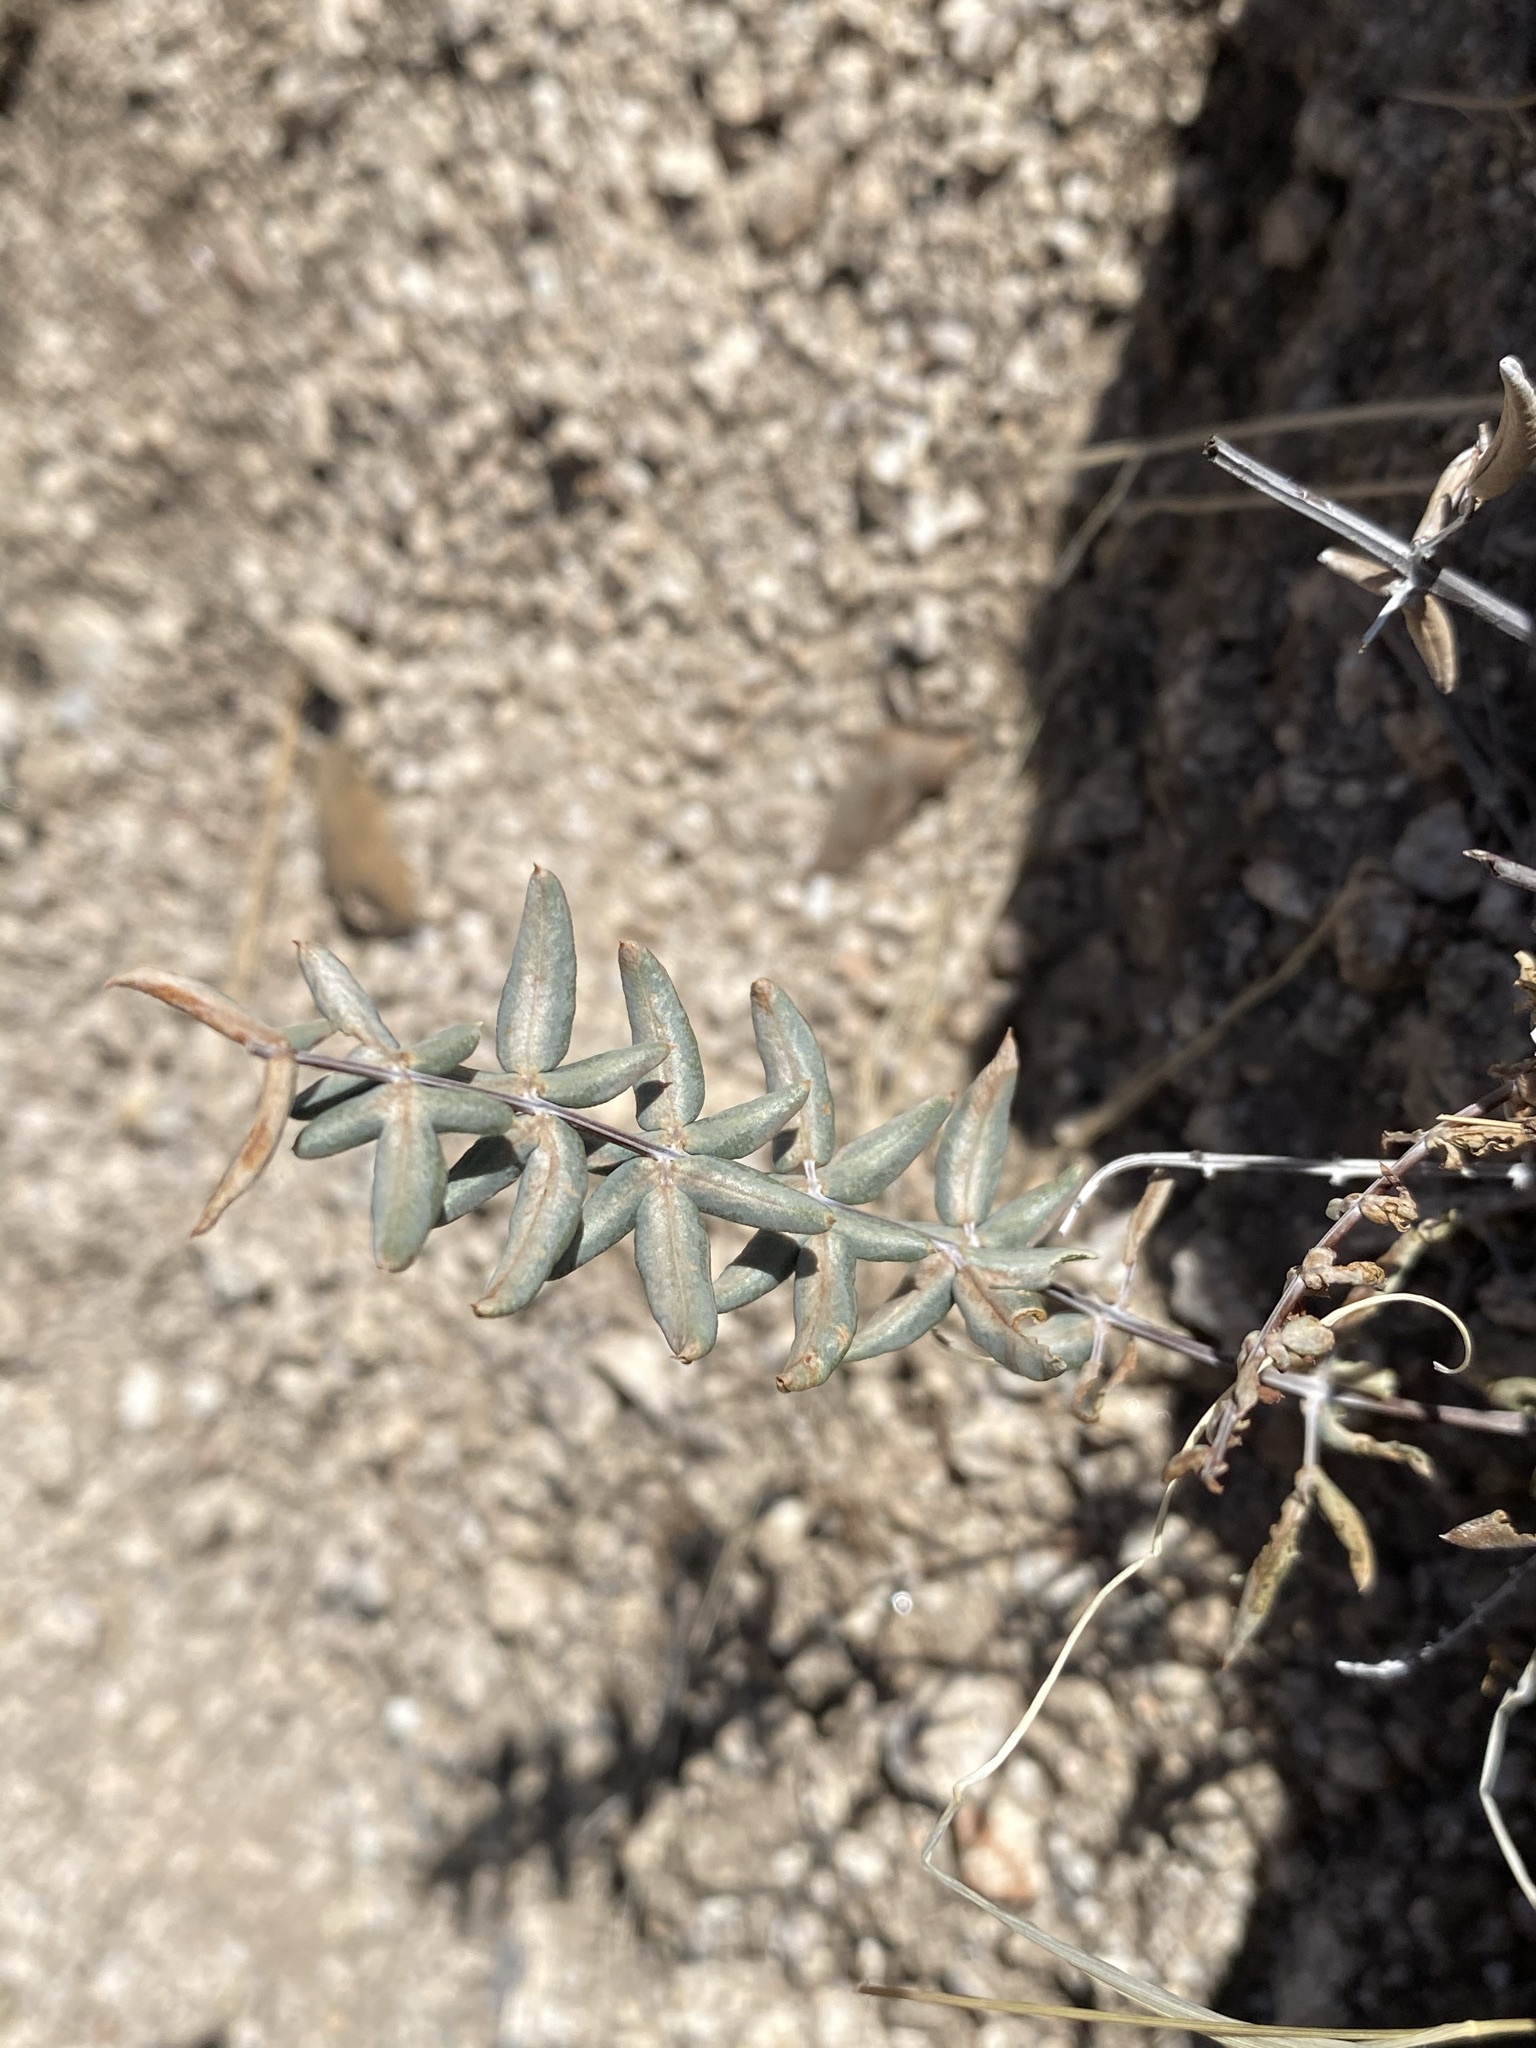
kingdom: Plantae
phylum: Tracheophyta
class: Polypodiopsida
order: Polypodiales
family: Pteridaceae
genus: Pellaea
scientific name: Pellaea wrightiana
